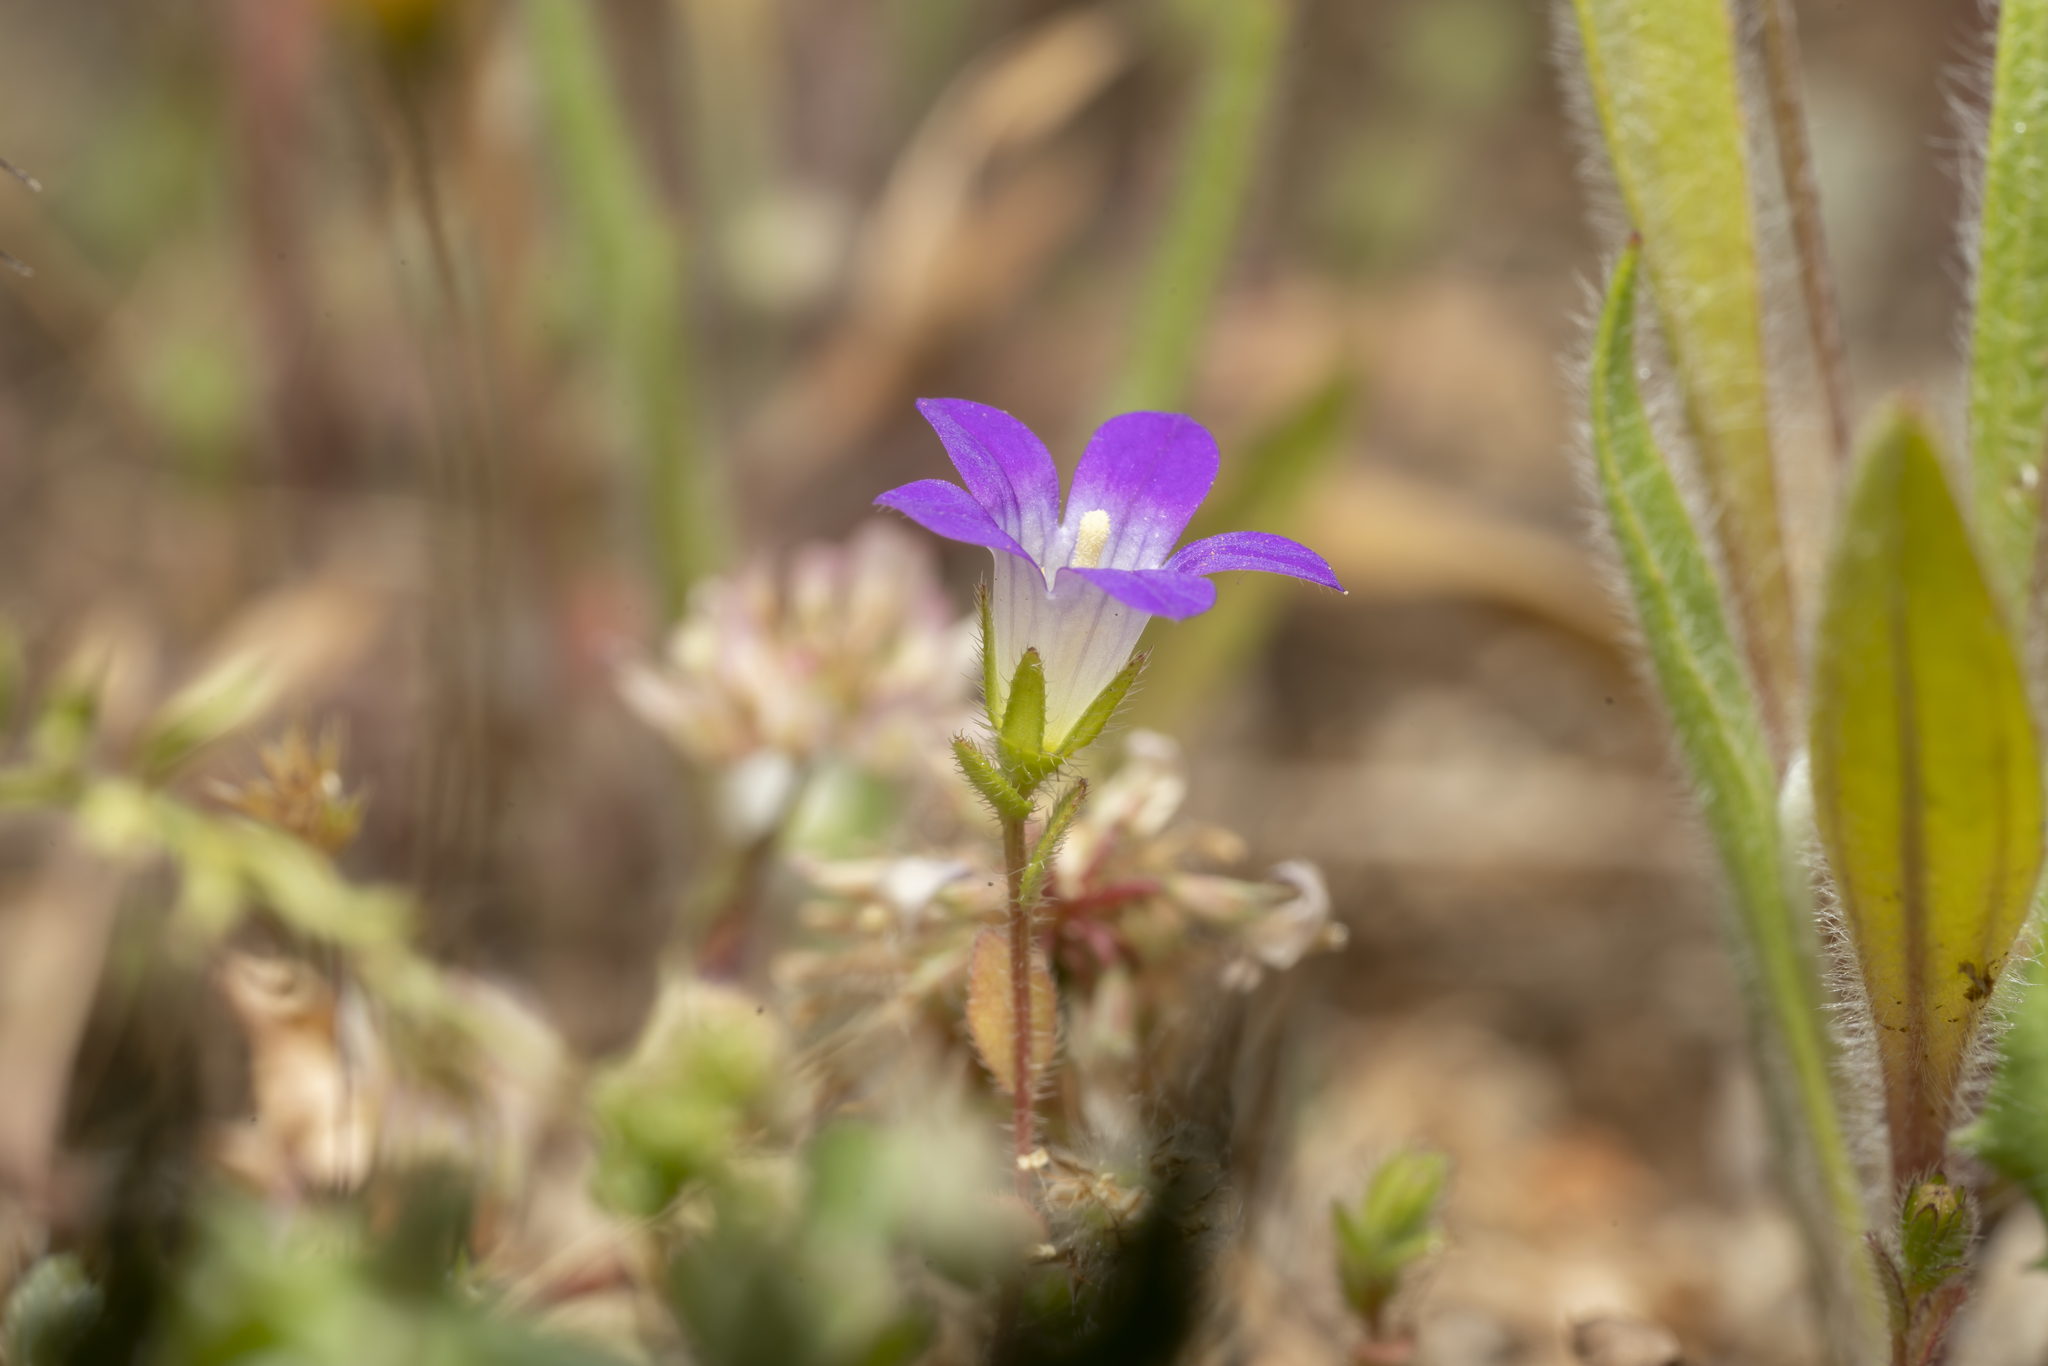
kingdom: Plantae
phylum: Tracheophyta
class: Magnoliopsida
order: Asterales
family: Campanulaceae
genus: Campanula
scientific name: Campanula rhodensis
